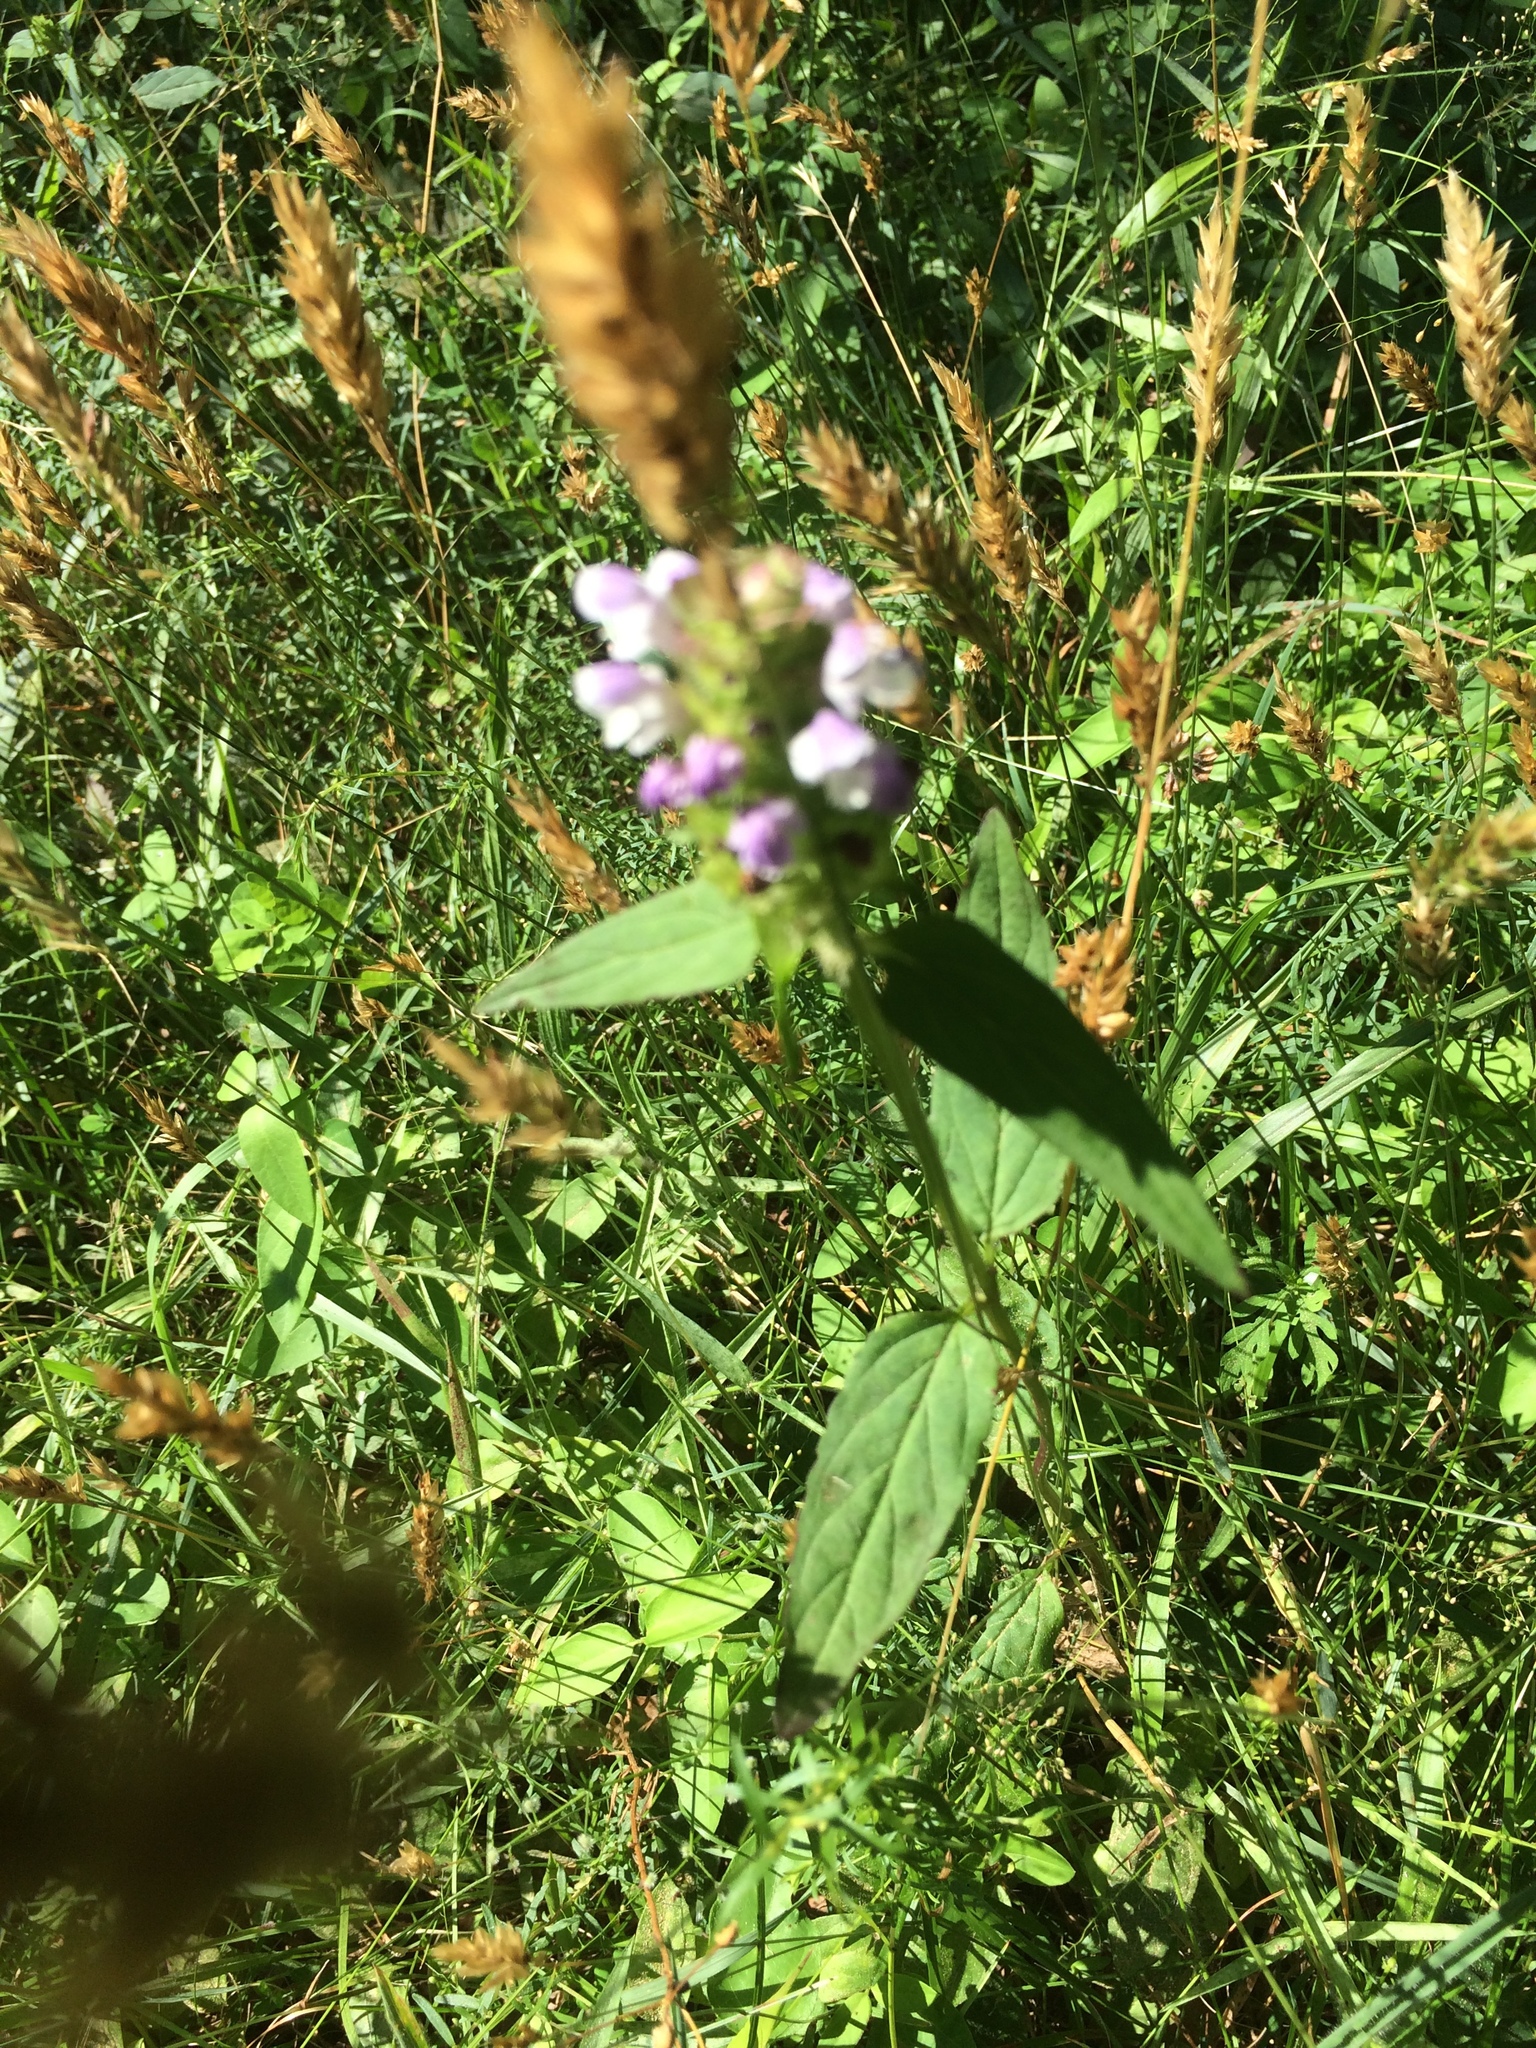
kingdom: Plantae
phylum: Tracheophyta
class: Magnoliopsida
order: Lamiales
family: Lamiaceae
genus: Prunella
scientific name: Prunella vulgaris
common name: Heal-all
